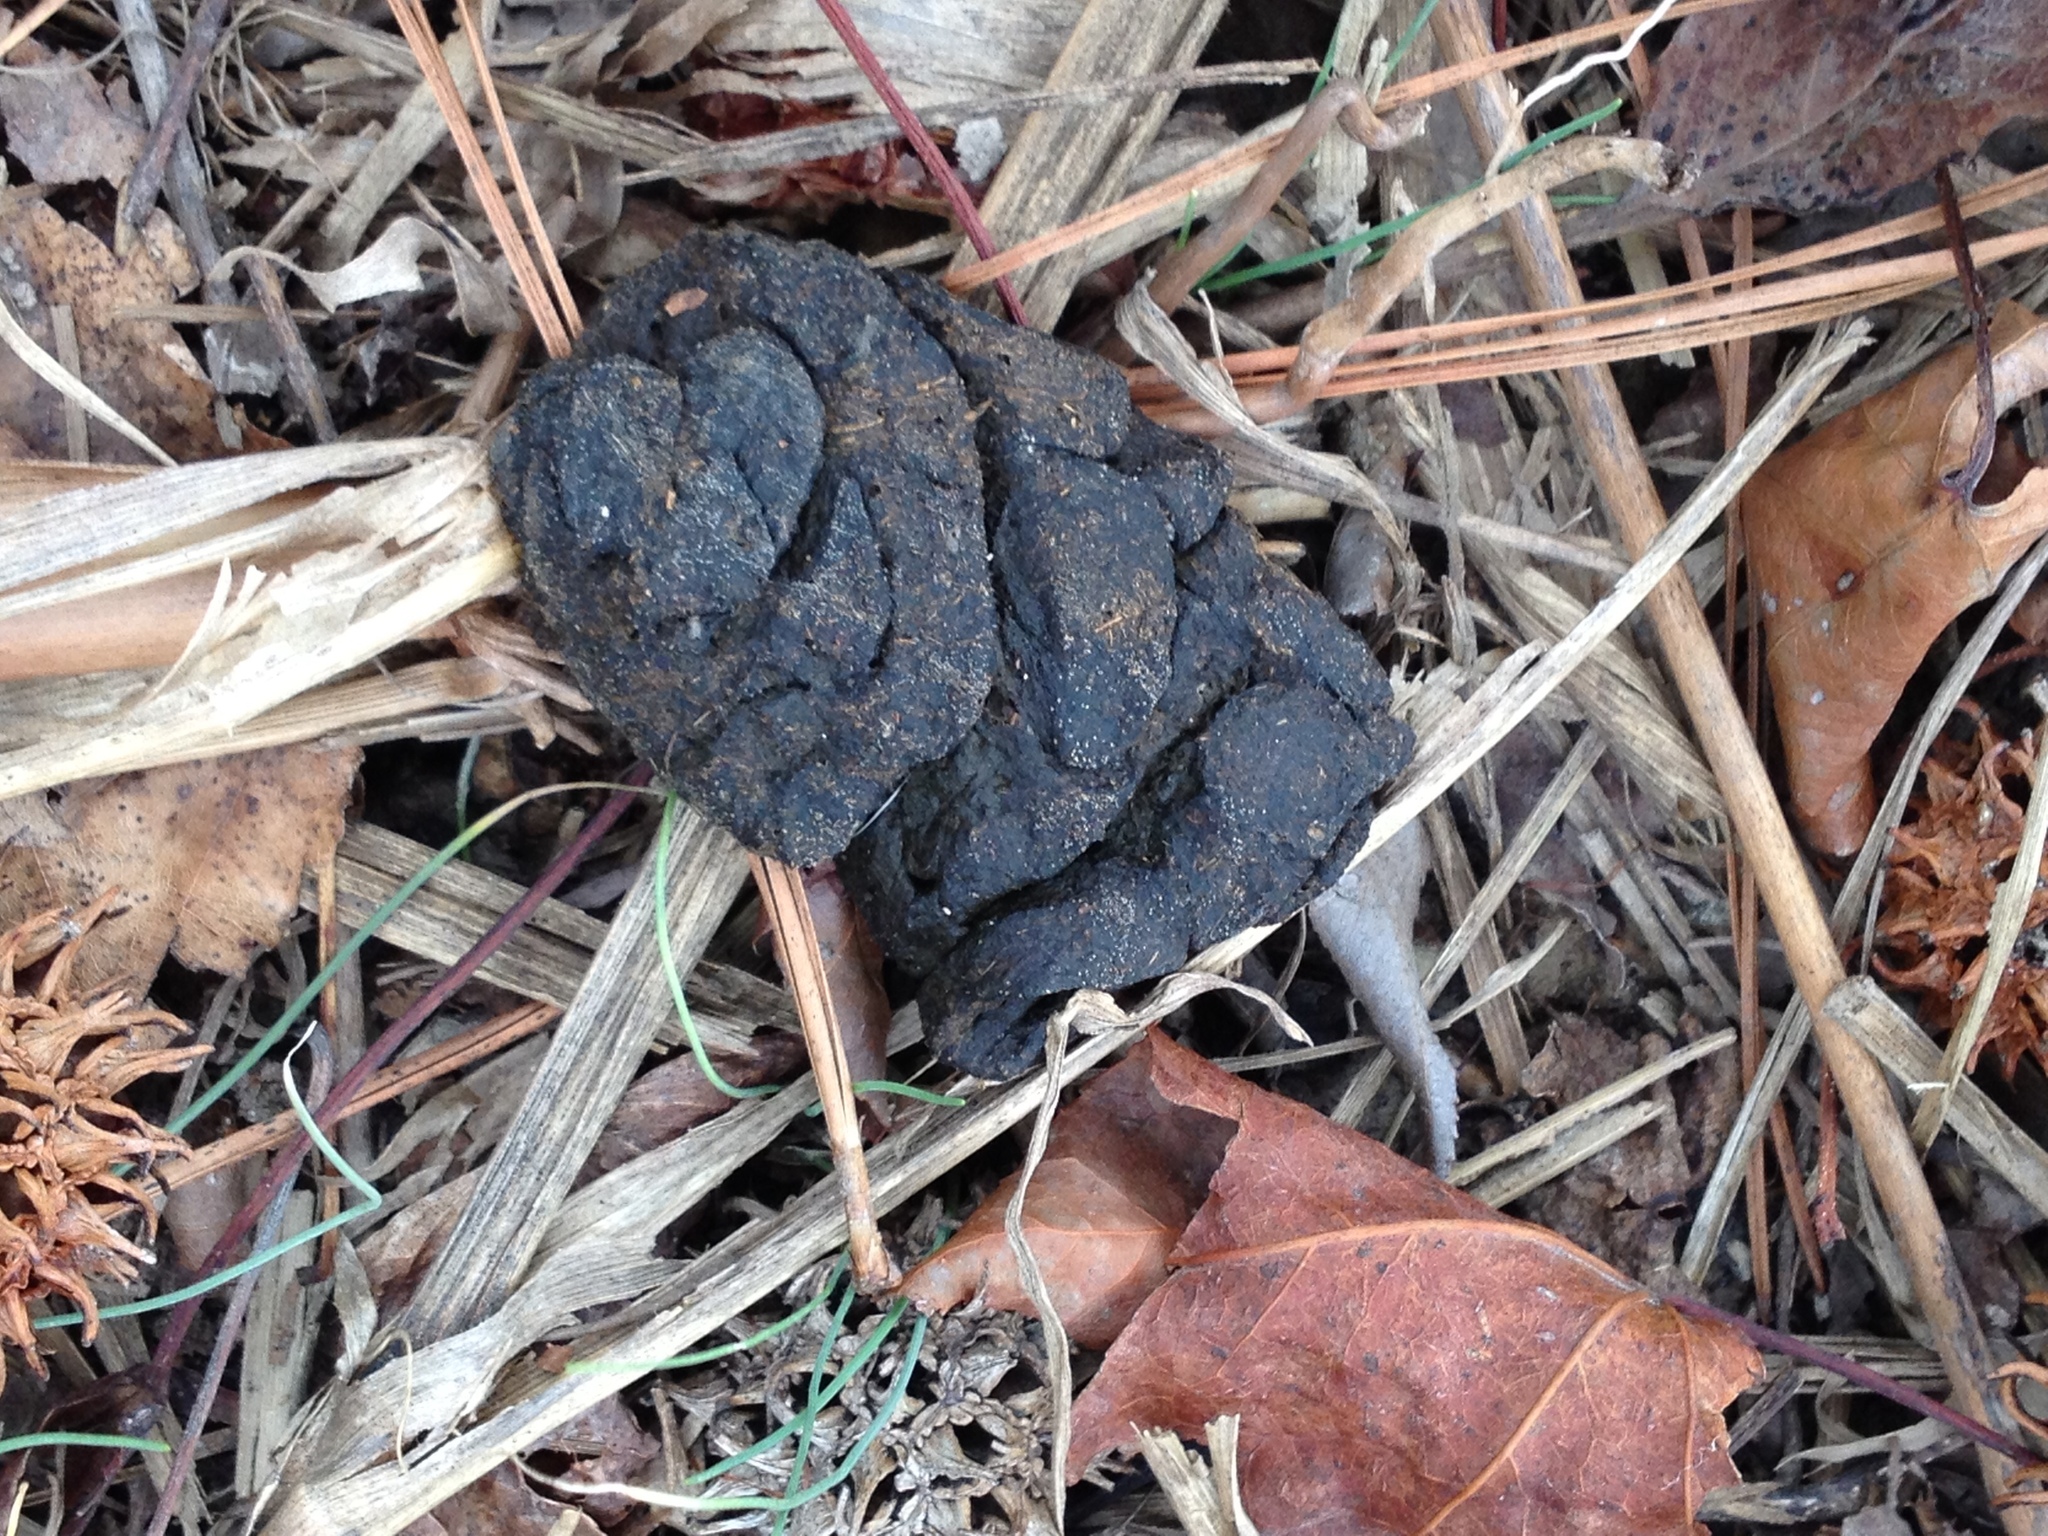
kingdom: Animalia
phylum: Chordata
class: Mammalia
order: Carnivora
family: Procyonidae
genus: Procyon
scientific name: Procyon lotor
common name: Raccoon
